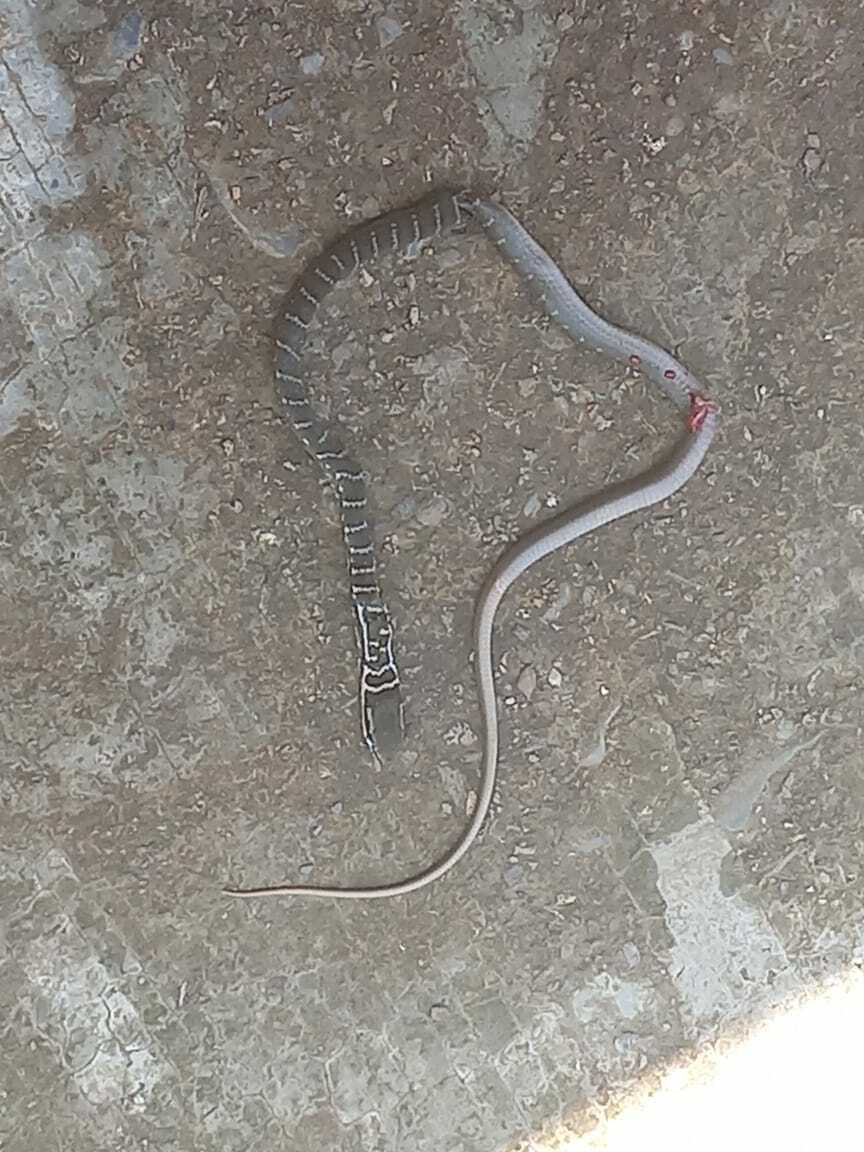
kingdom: Animalia
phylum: Chordata
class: Squamata
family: Colubridae
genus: Mastigodryas
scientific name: Mastigodryas melanolomus
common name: Salmon-bellied racer
